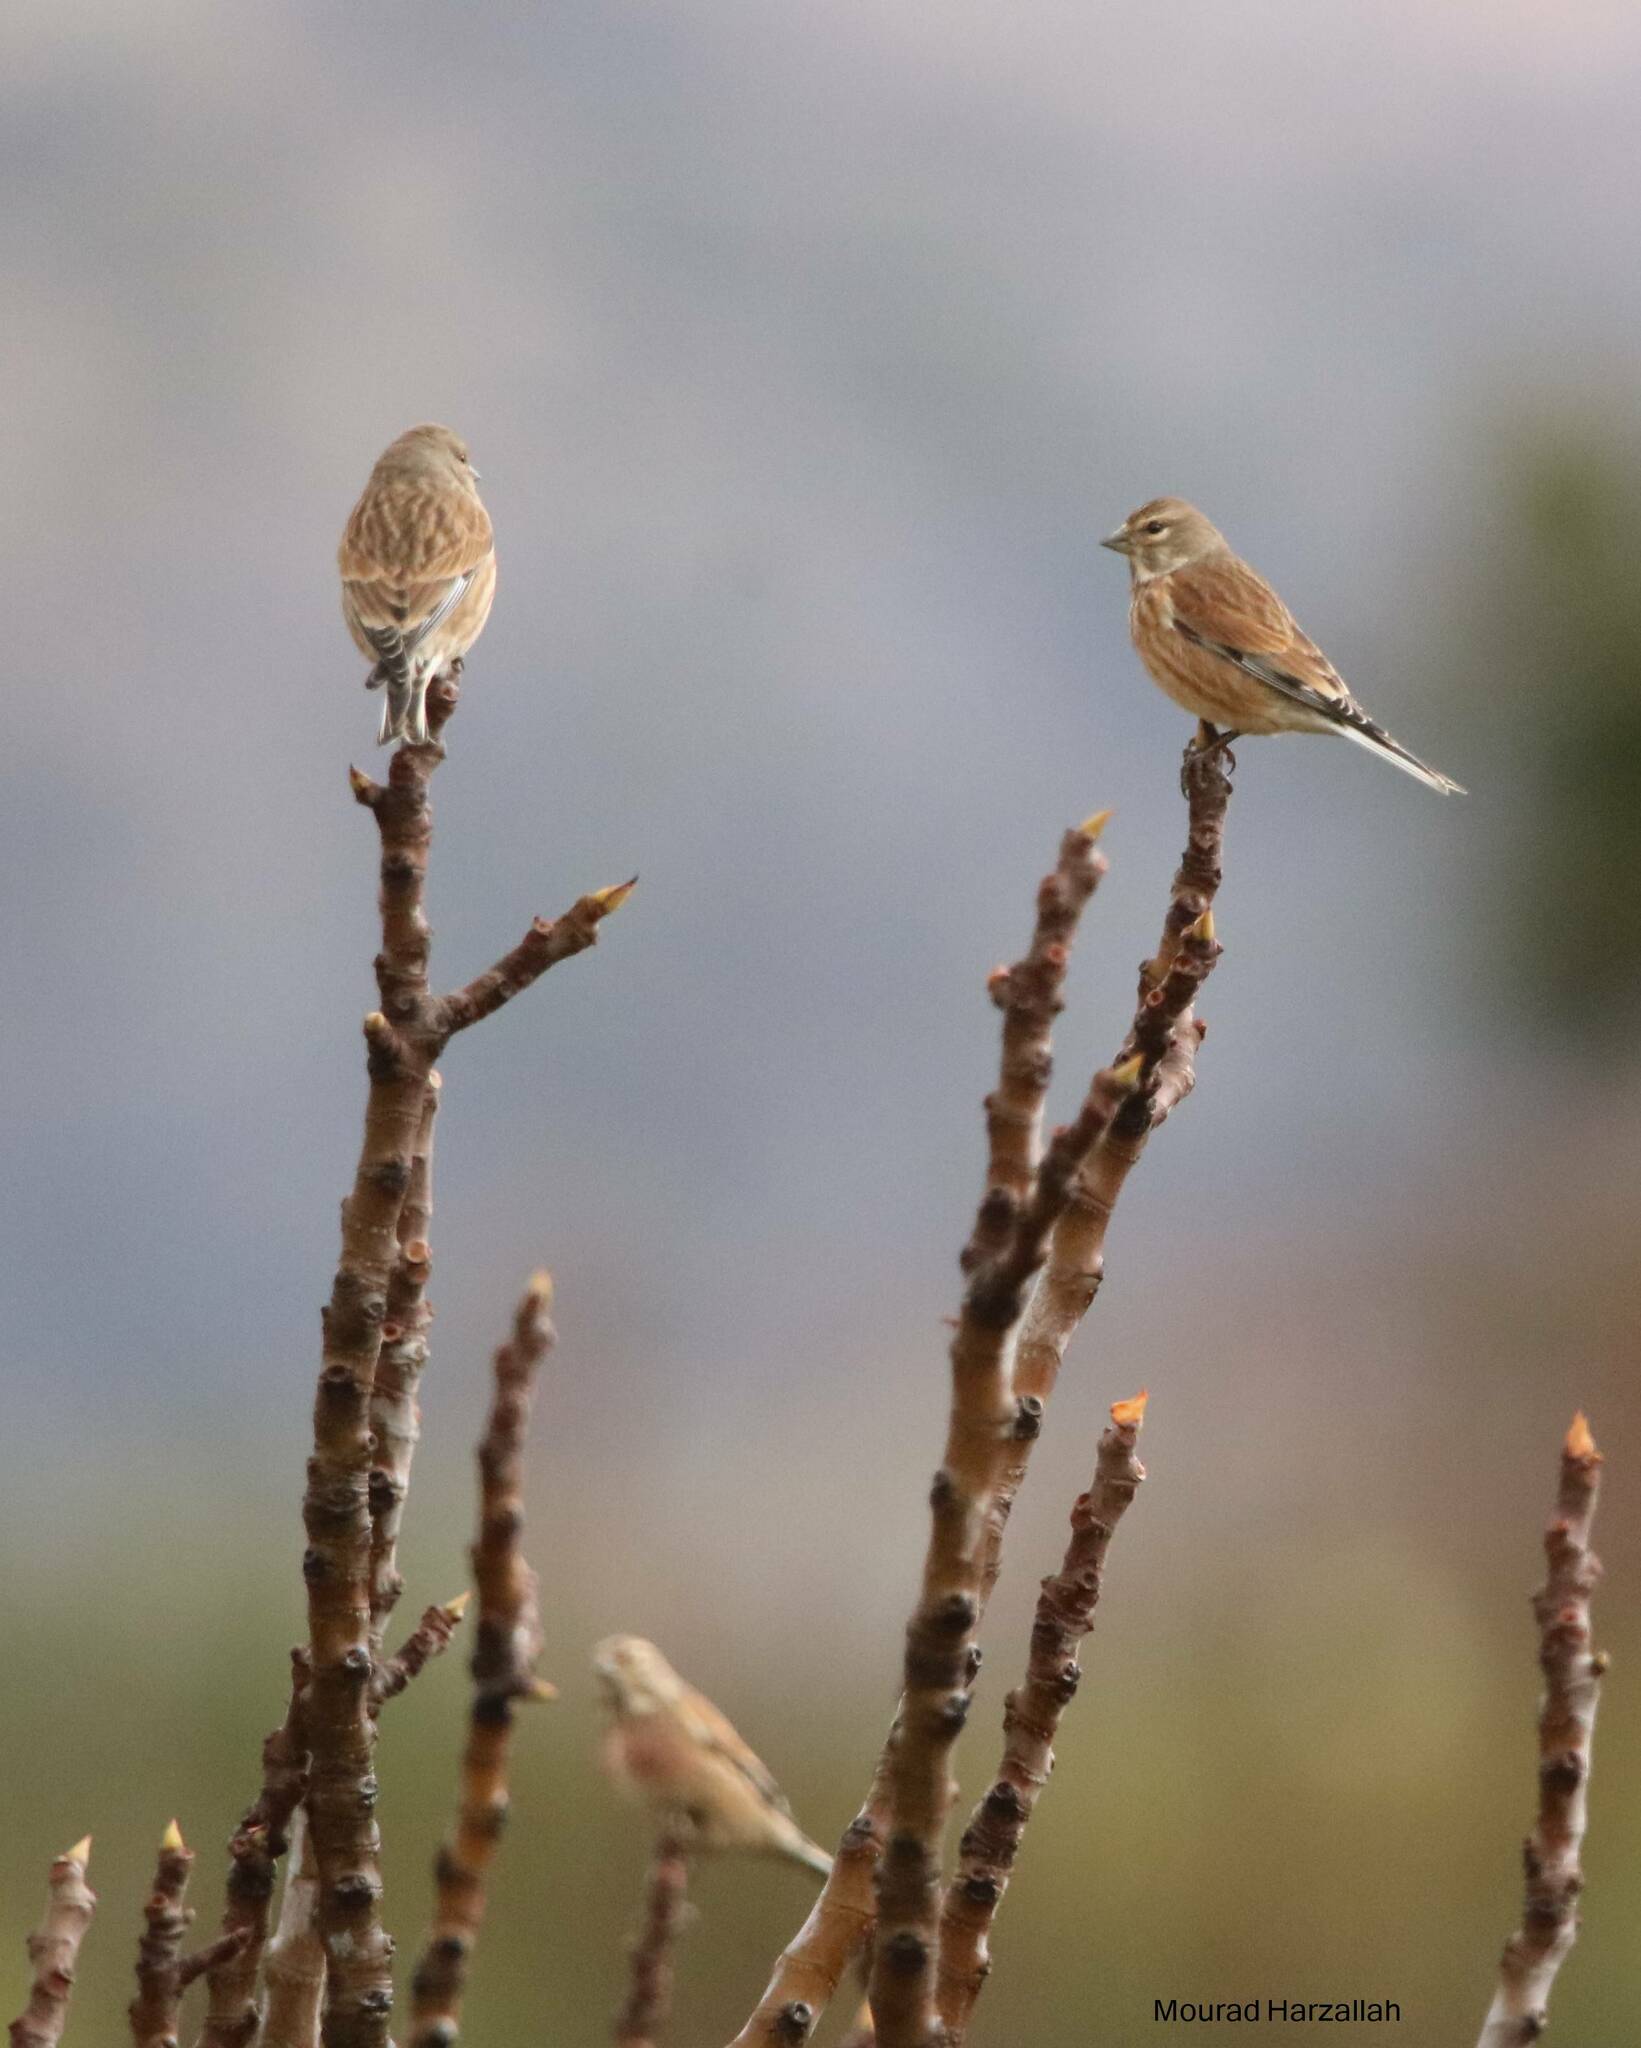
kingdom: Animalia
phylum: Chordata
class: Aves
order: Passeriformes
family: Fringillidae
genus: Linaria
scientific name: Linaria cannabina
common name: Common linnet
